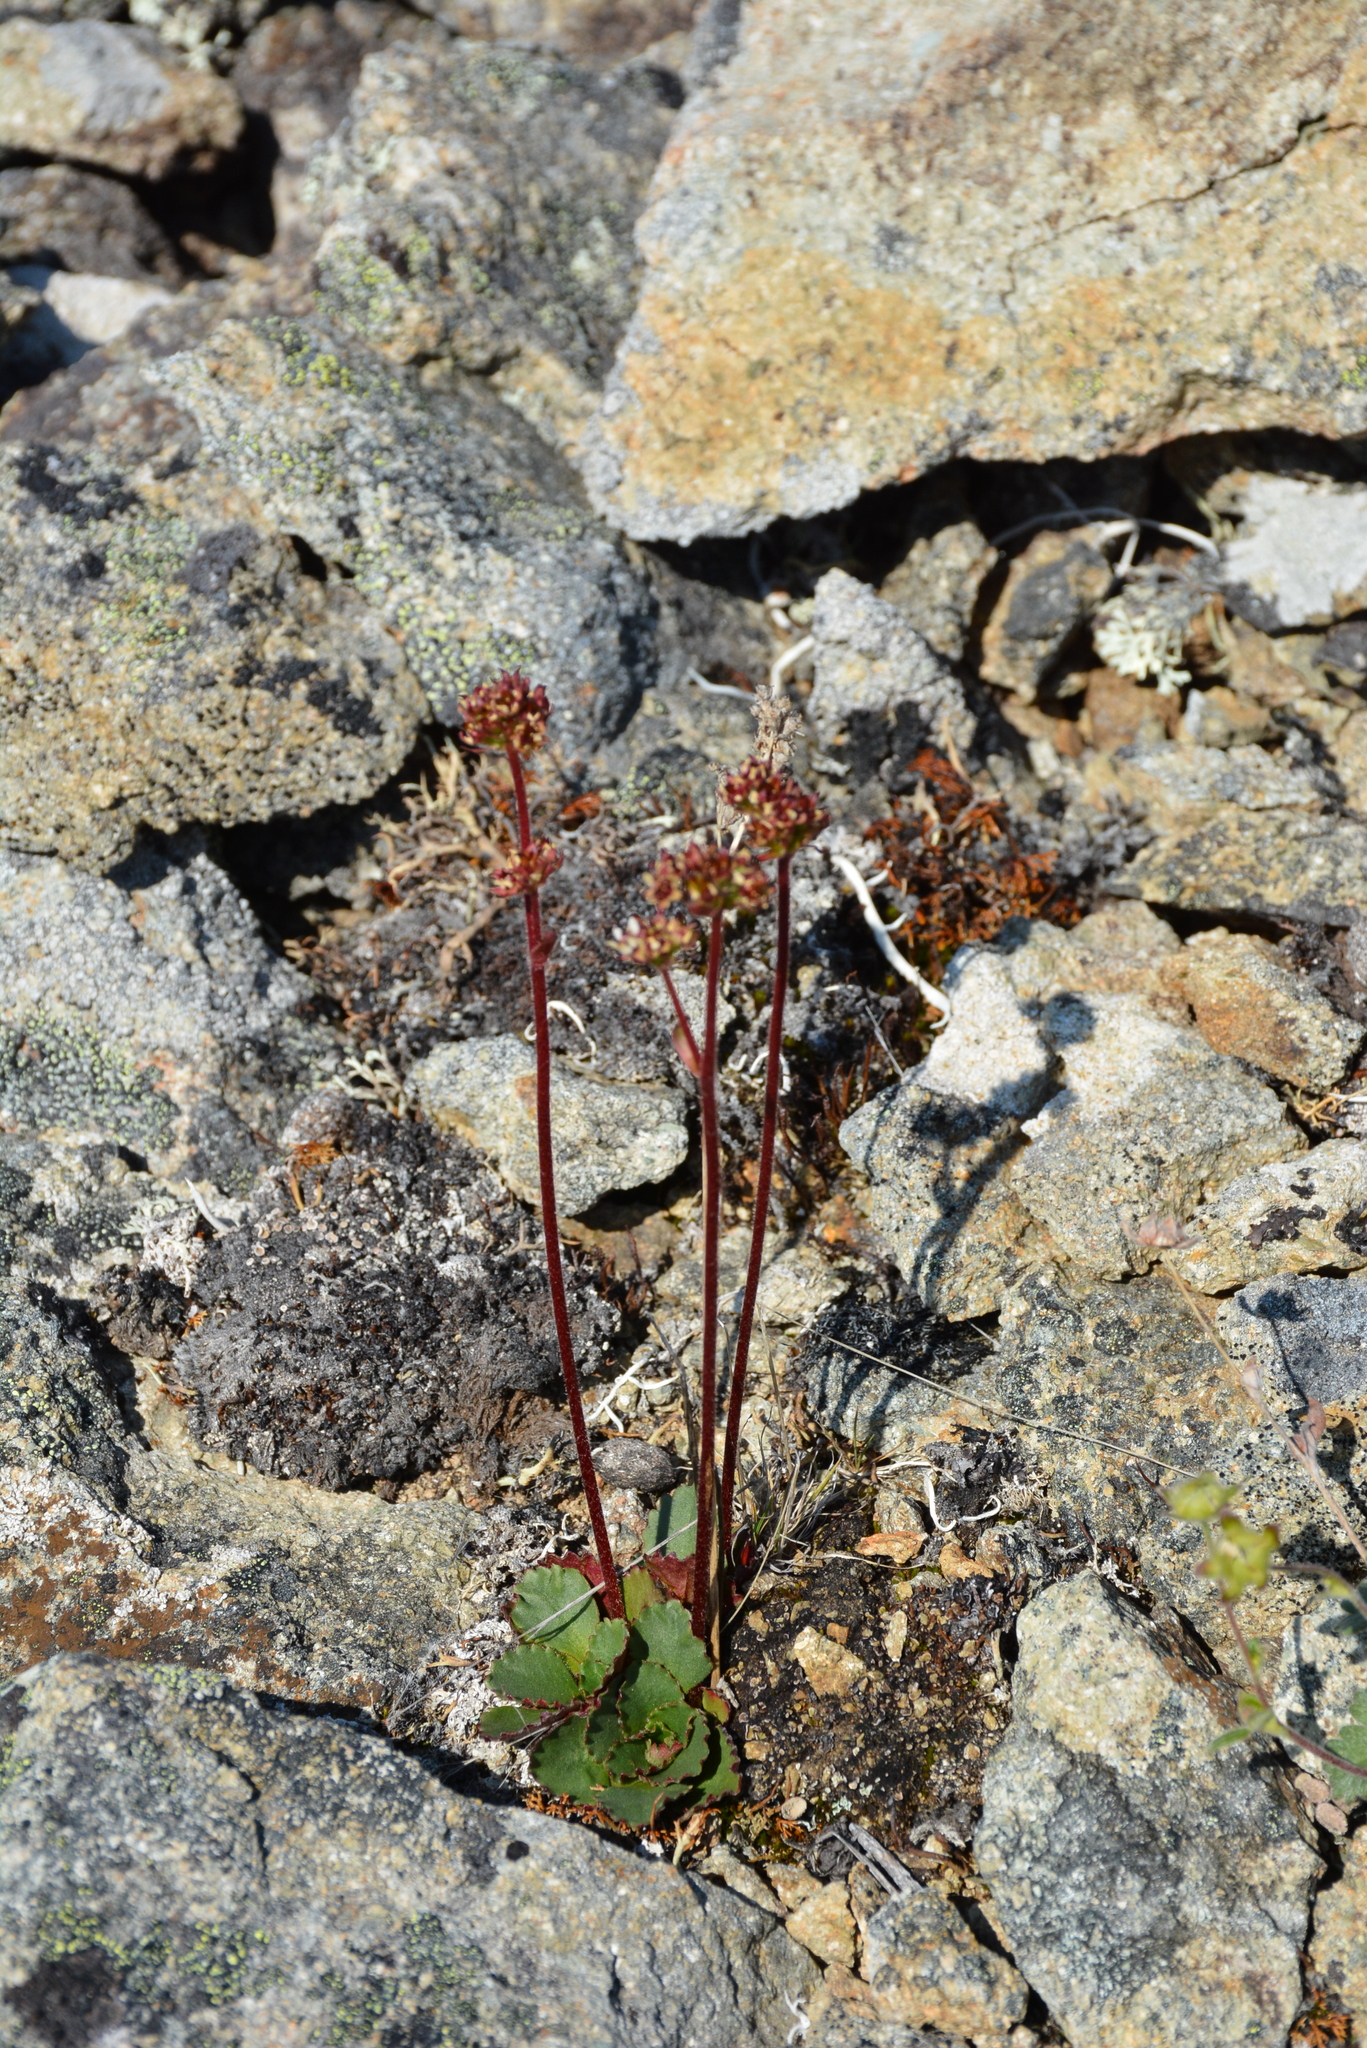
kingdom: Plantae
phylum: Tracheophyta
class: Magnoliopsida
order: Saxifragales
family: Saxifragaceae
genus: Micranthes
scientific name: Micranthes nivalis
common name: Alpine saxifrage
